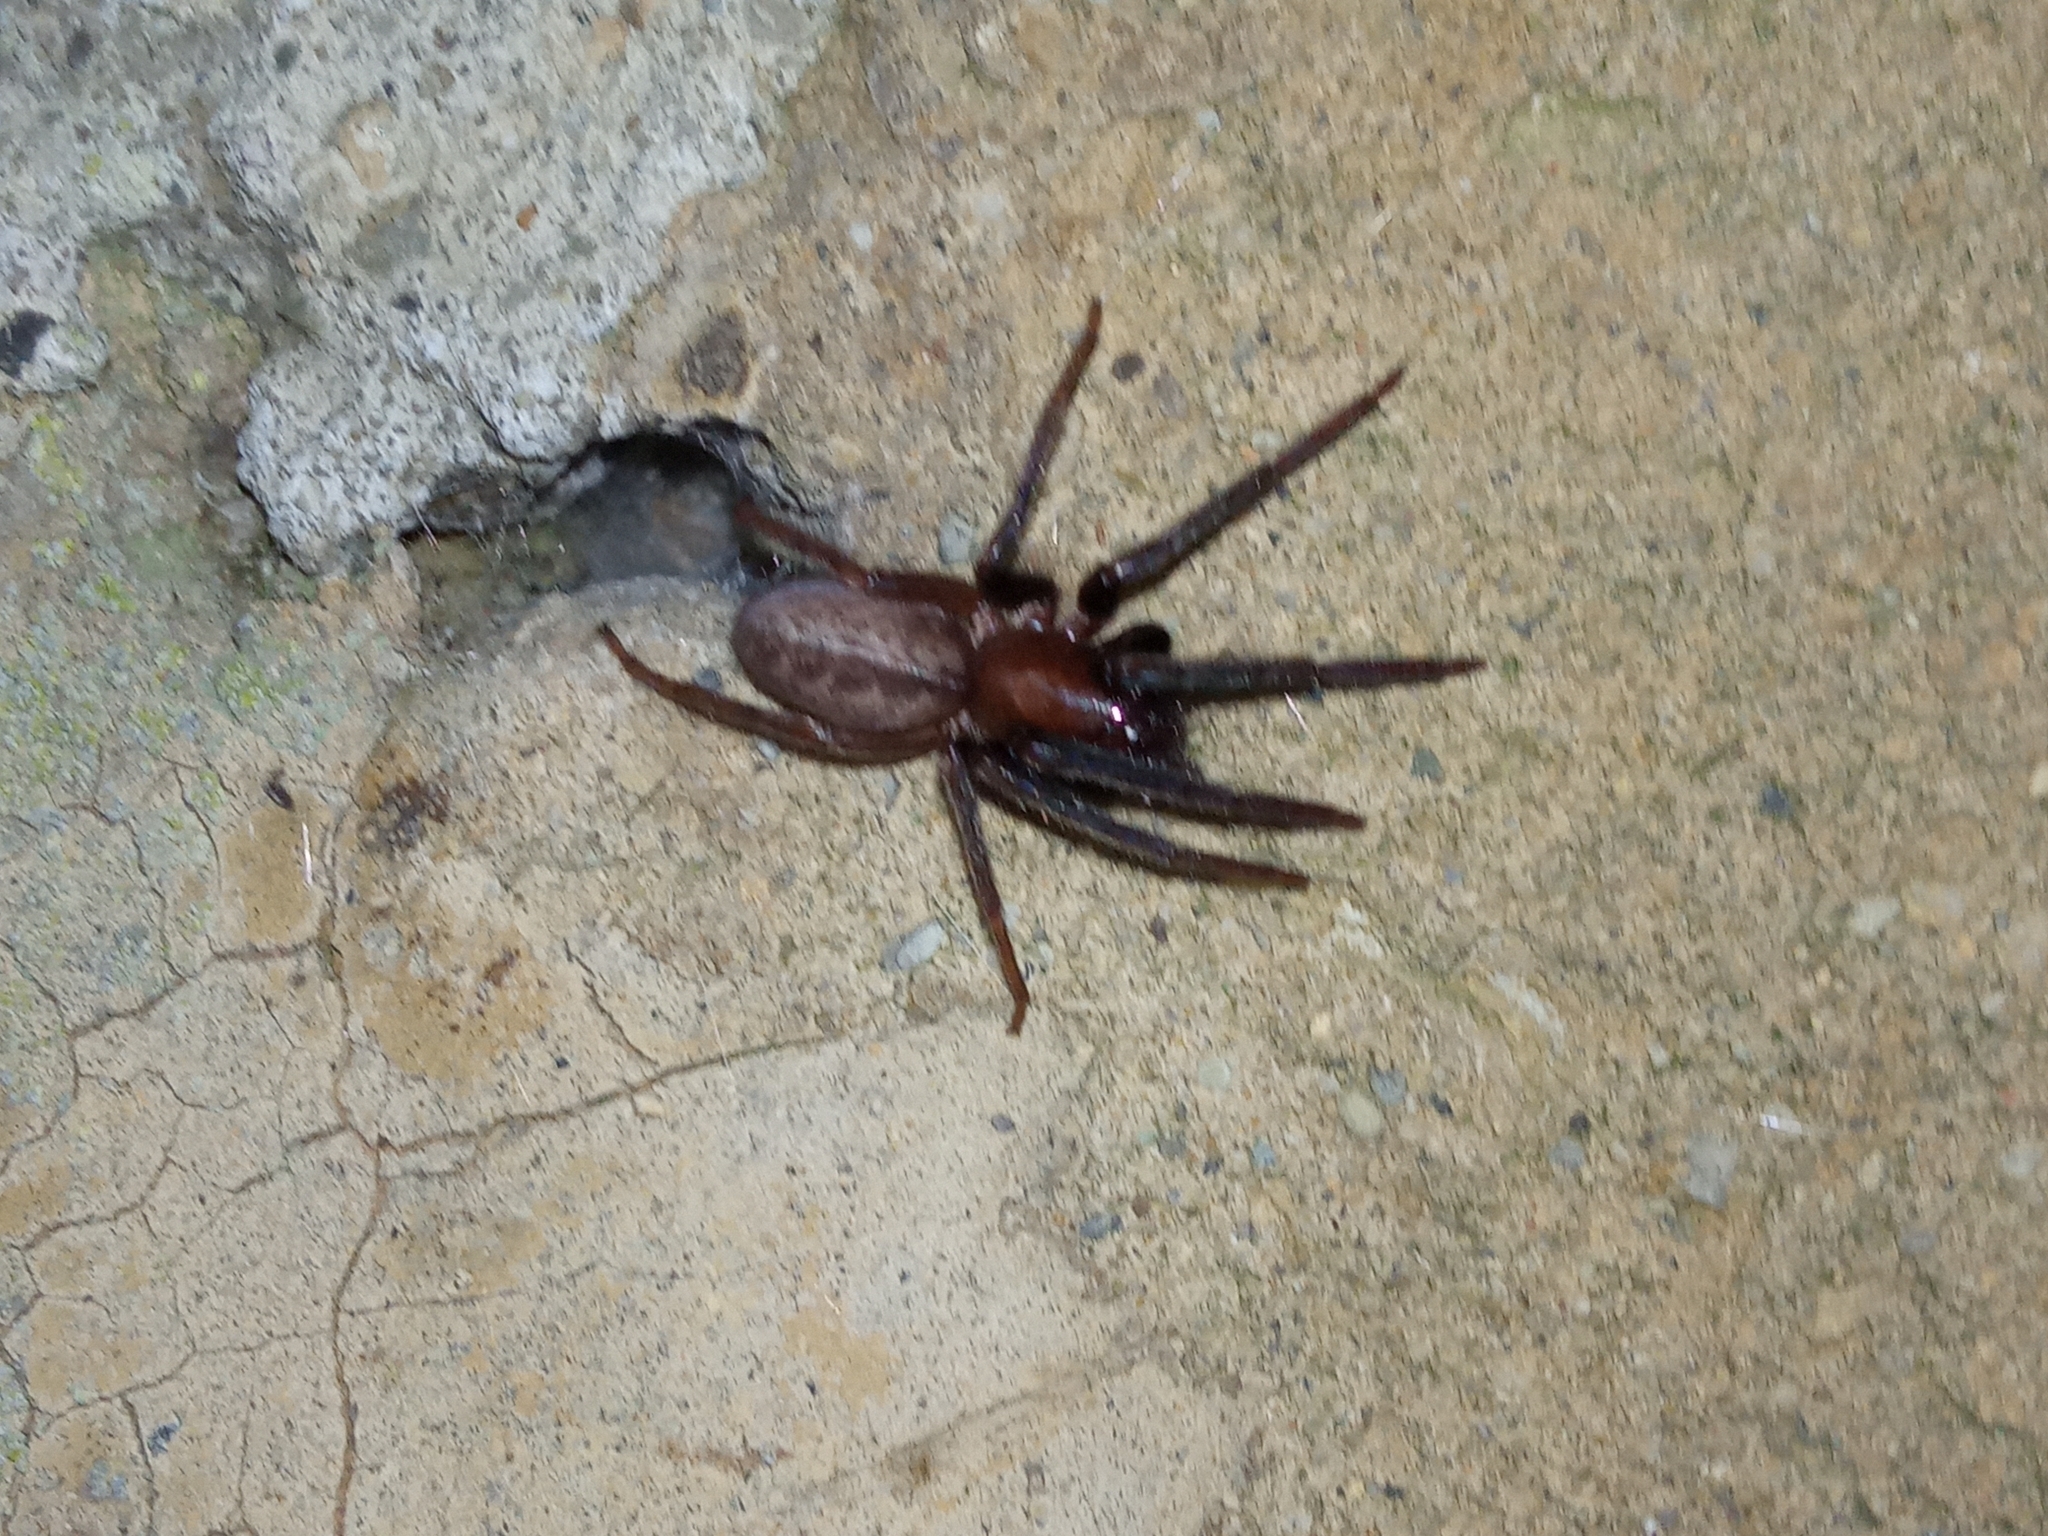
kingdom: Animalia
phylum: Arthropoda
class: Arachnida
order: Araneae
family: Segestriidae
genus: Segestria
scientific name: Segestria florentina
